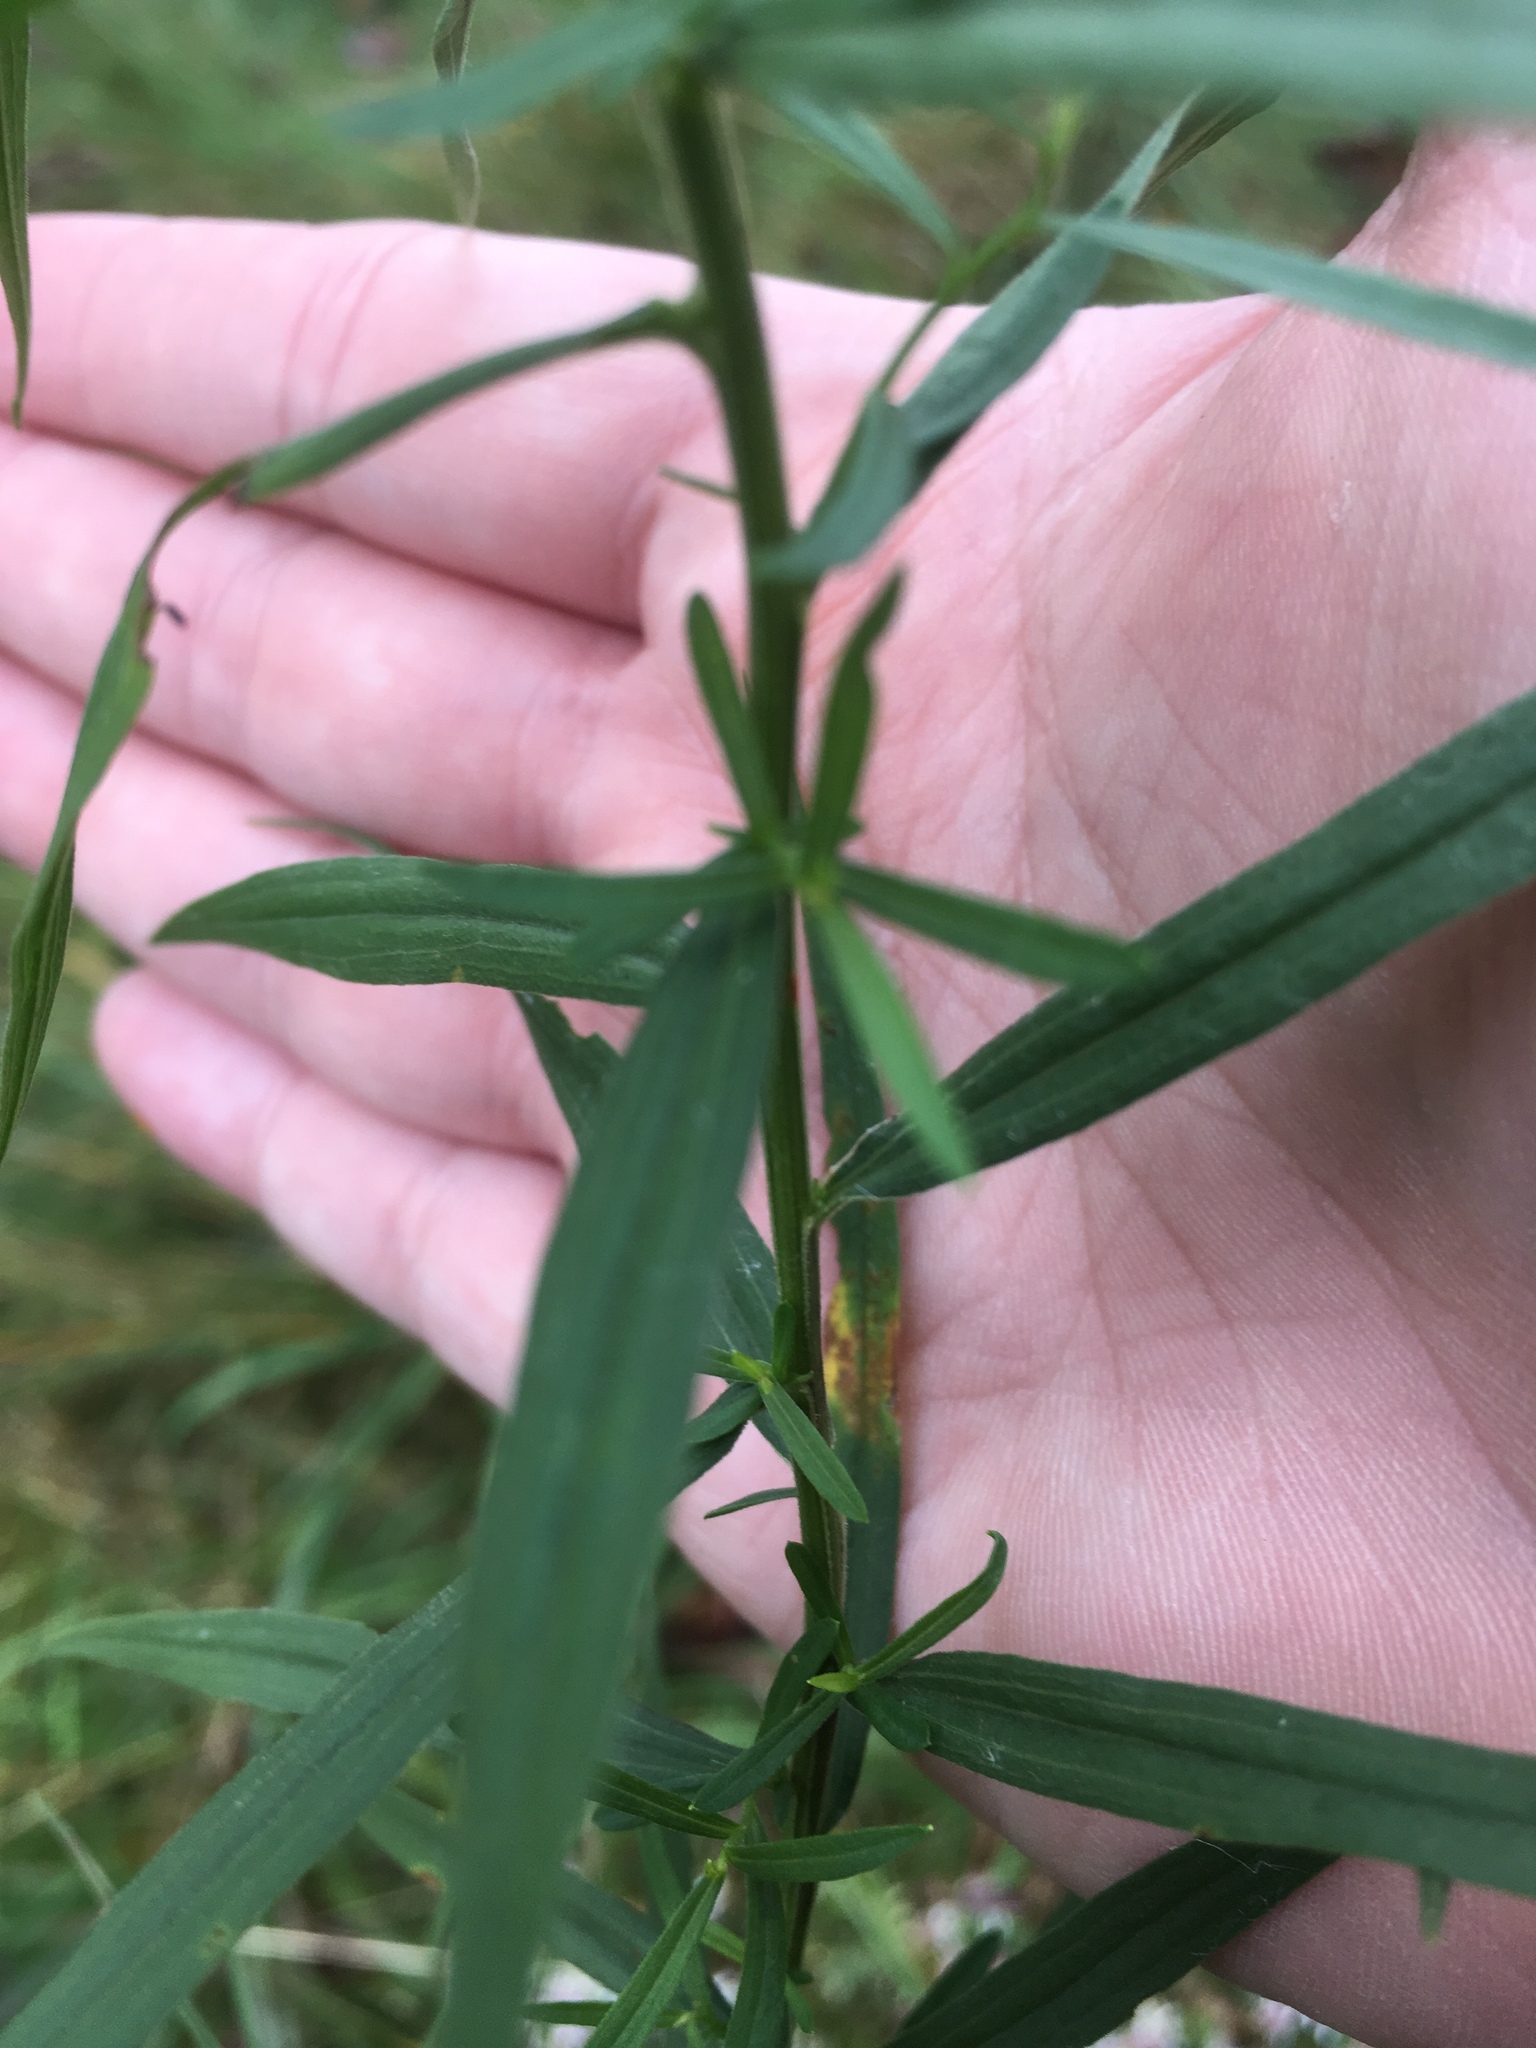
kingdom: Plantae
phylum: Tracheophyta
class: Magnoliopsida
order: Asterales
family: Asteraceae
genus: Euthamia
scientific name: Euthamia graminifolia
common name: Common goldentop
